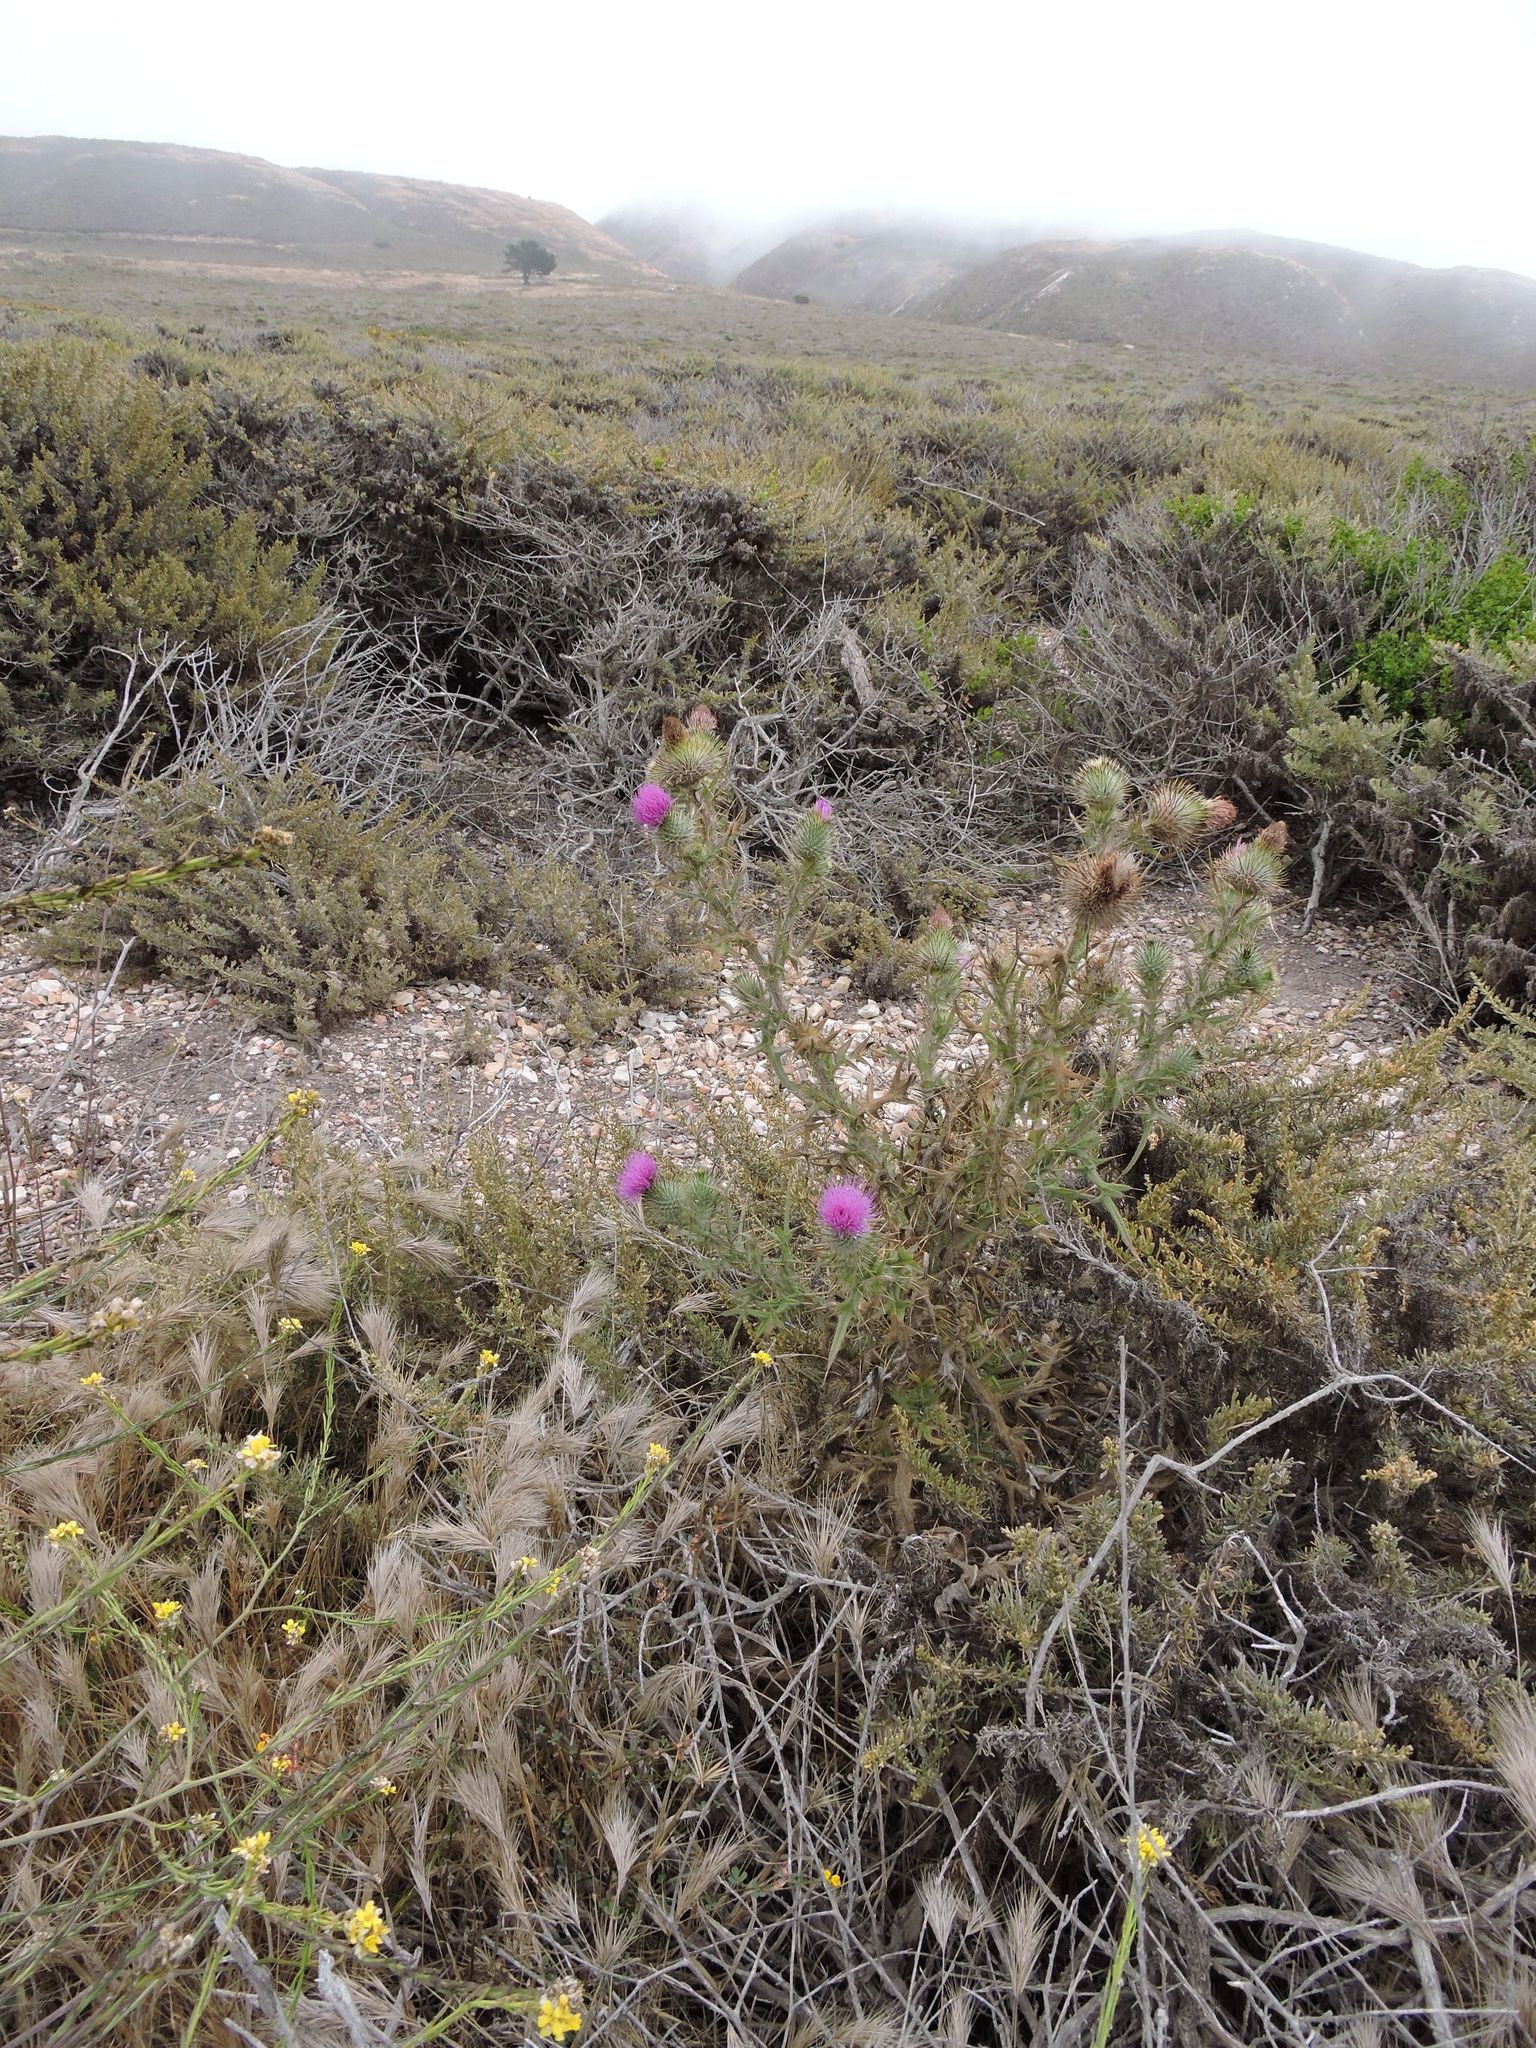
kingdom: Plantae
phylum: Tracheophyta
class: Magnoliopsida
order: Asterales
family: Asteraceae
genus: Cirsium
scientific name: Cirsium vulgare
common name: Bull thistle
